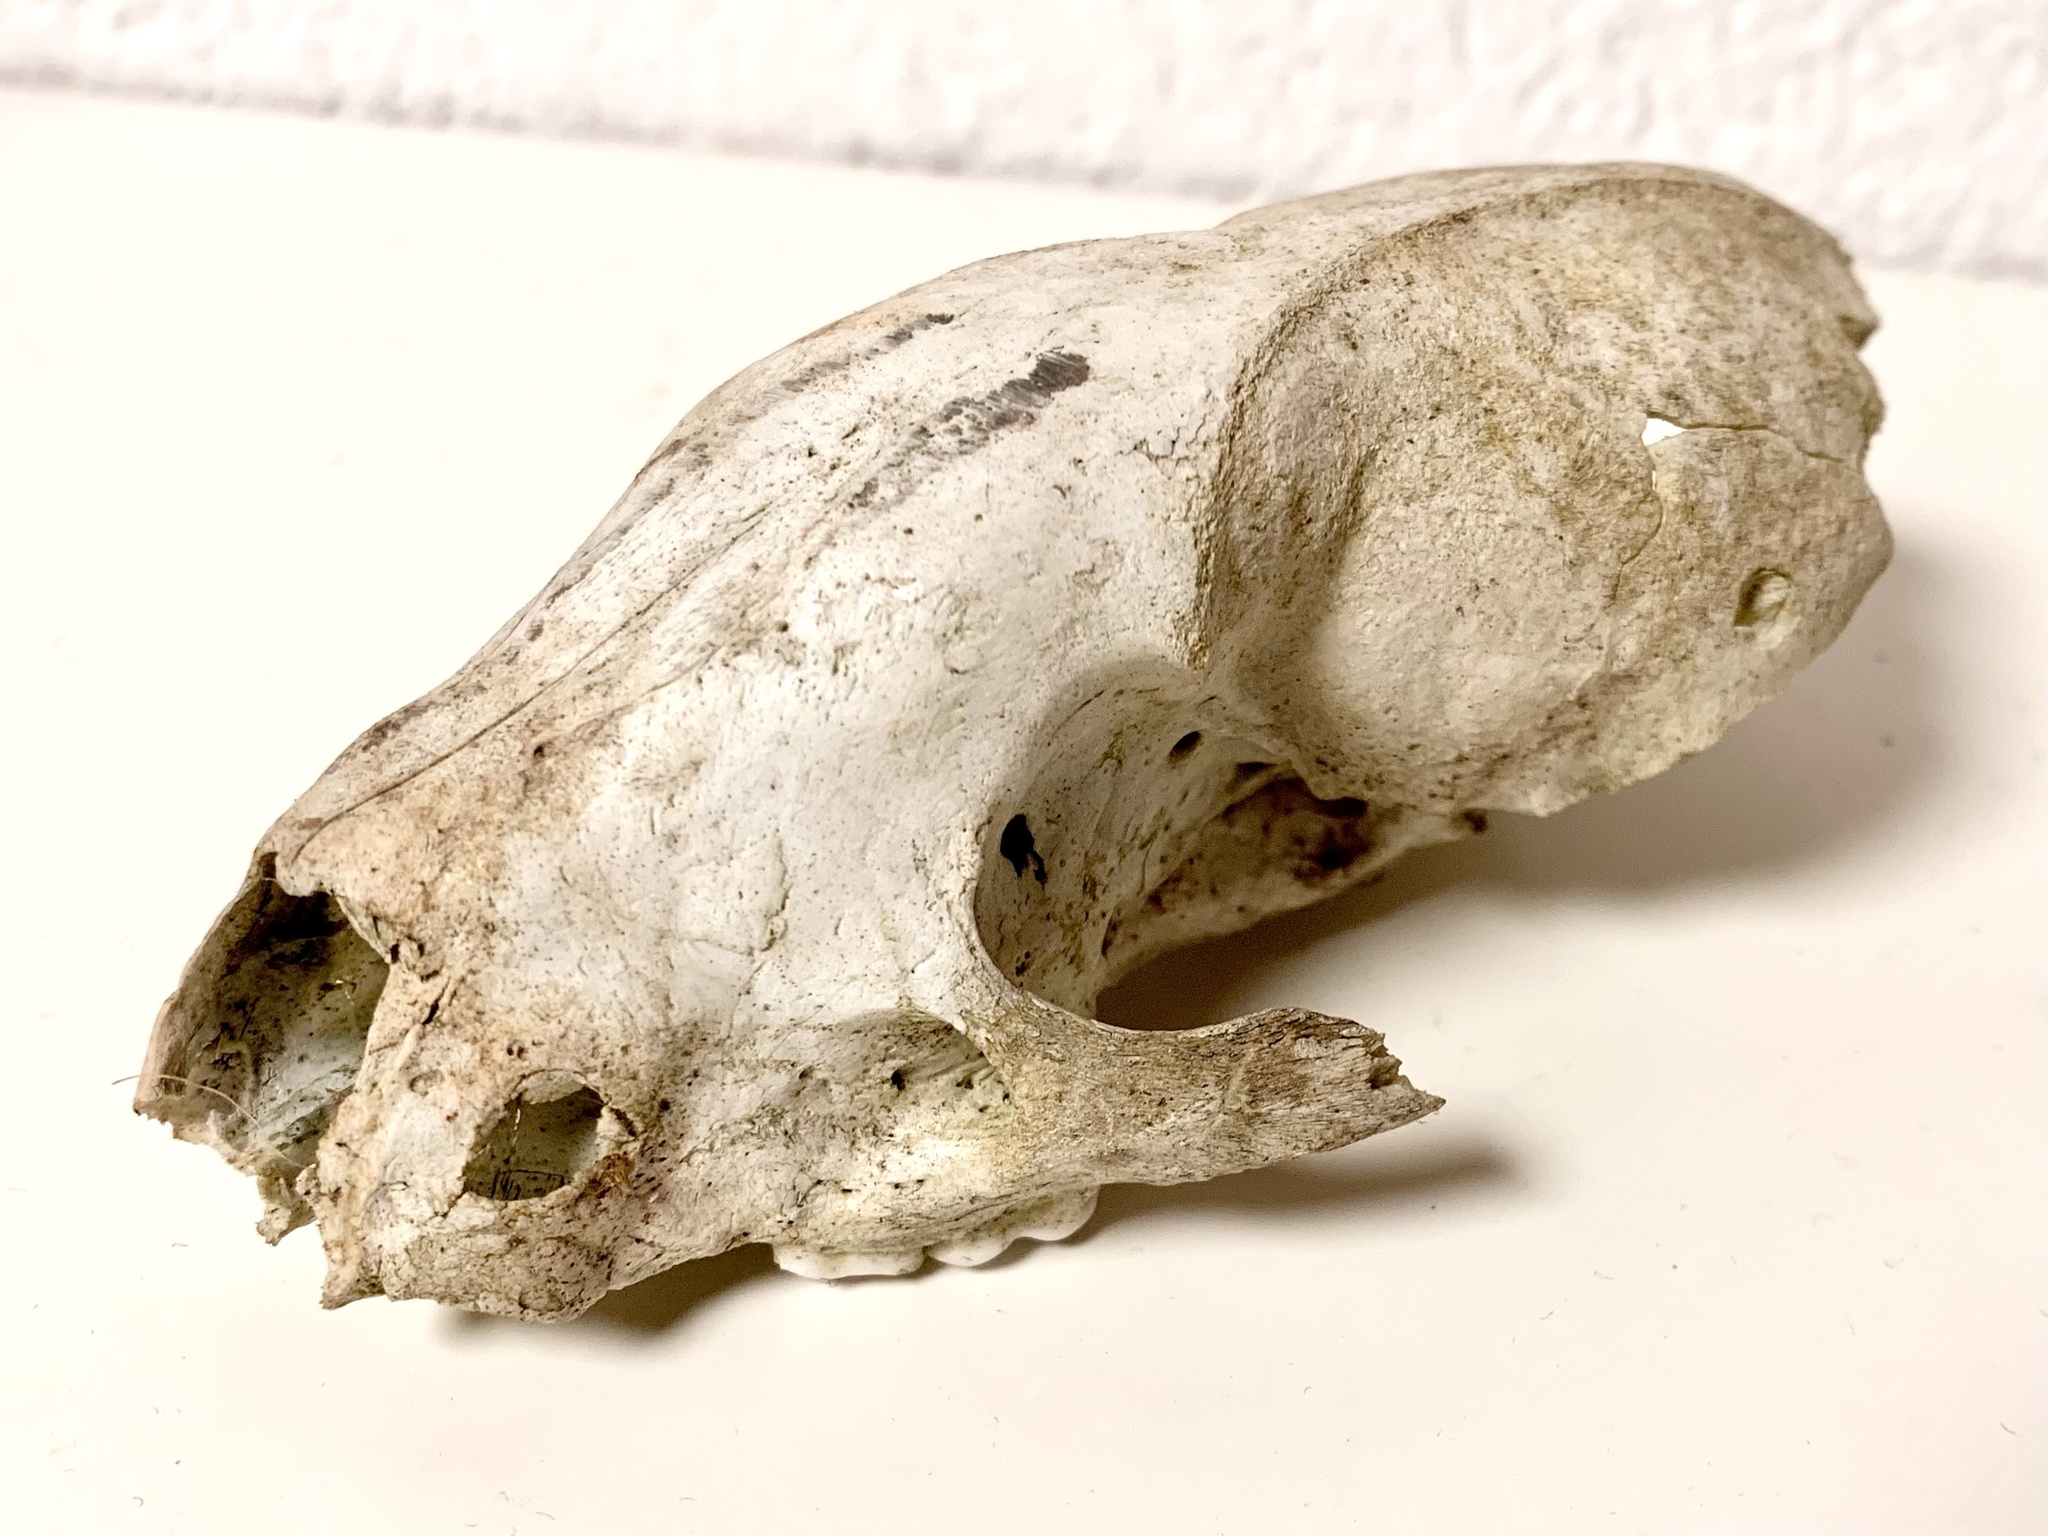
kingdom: Animalia
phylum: Chordata
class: Mammalia
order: Carnivora
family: Mustelidae
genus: Meles
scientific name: Meles meles
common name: Eurasian badger
